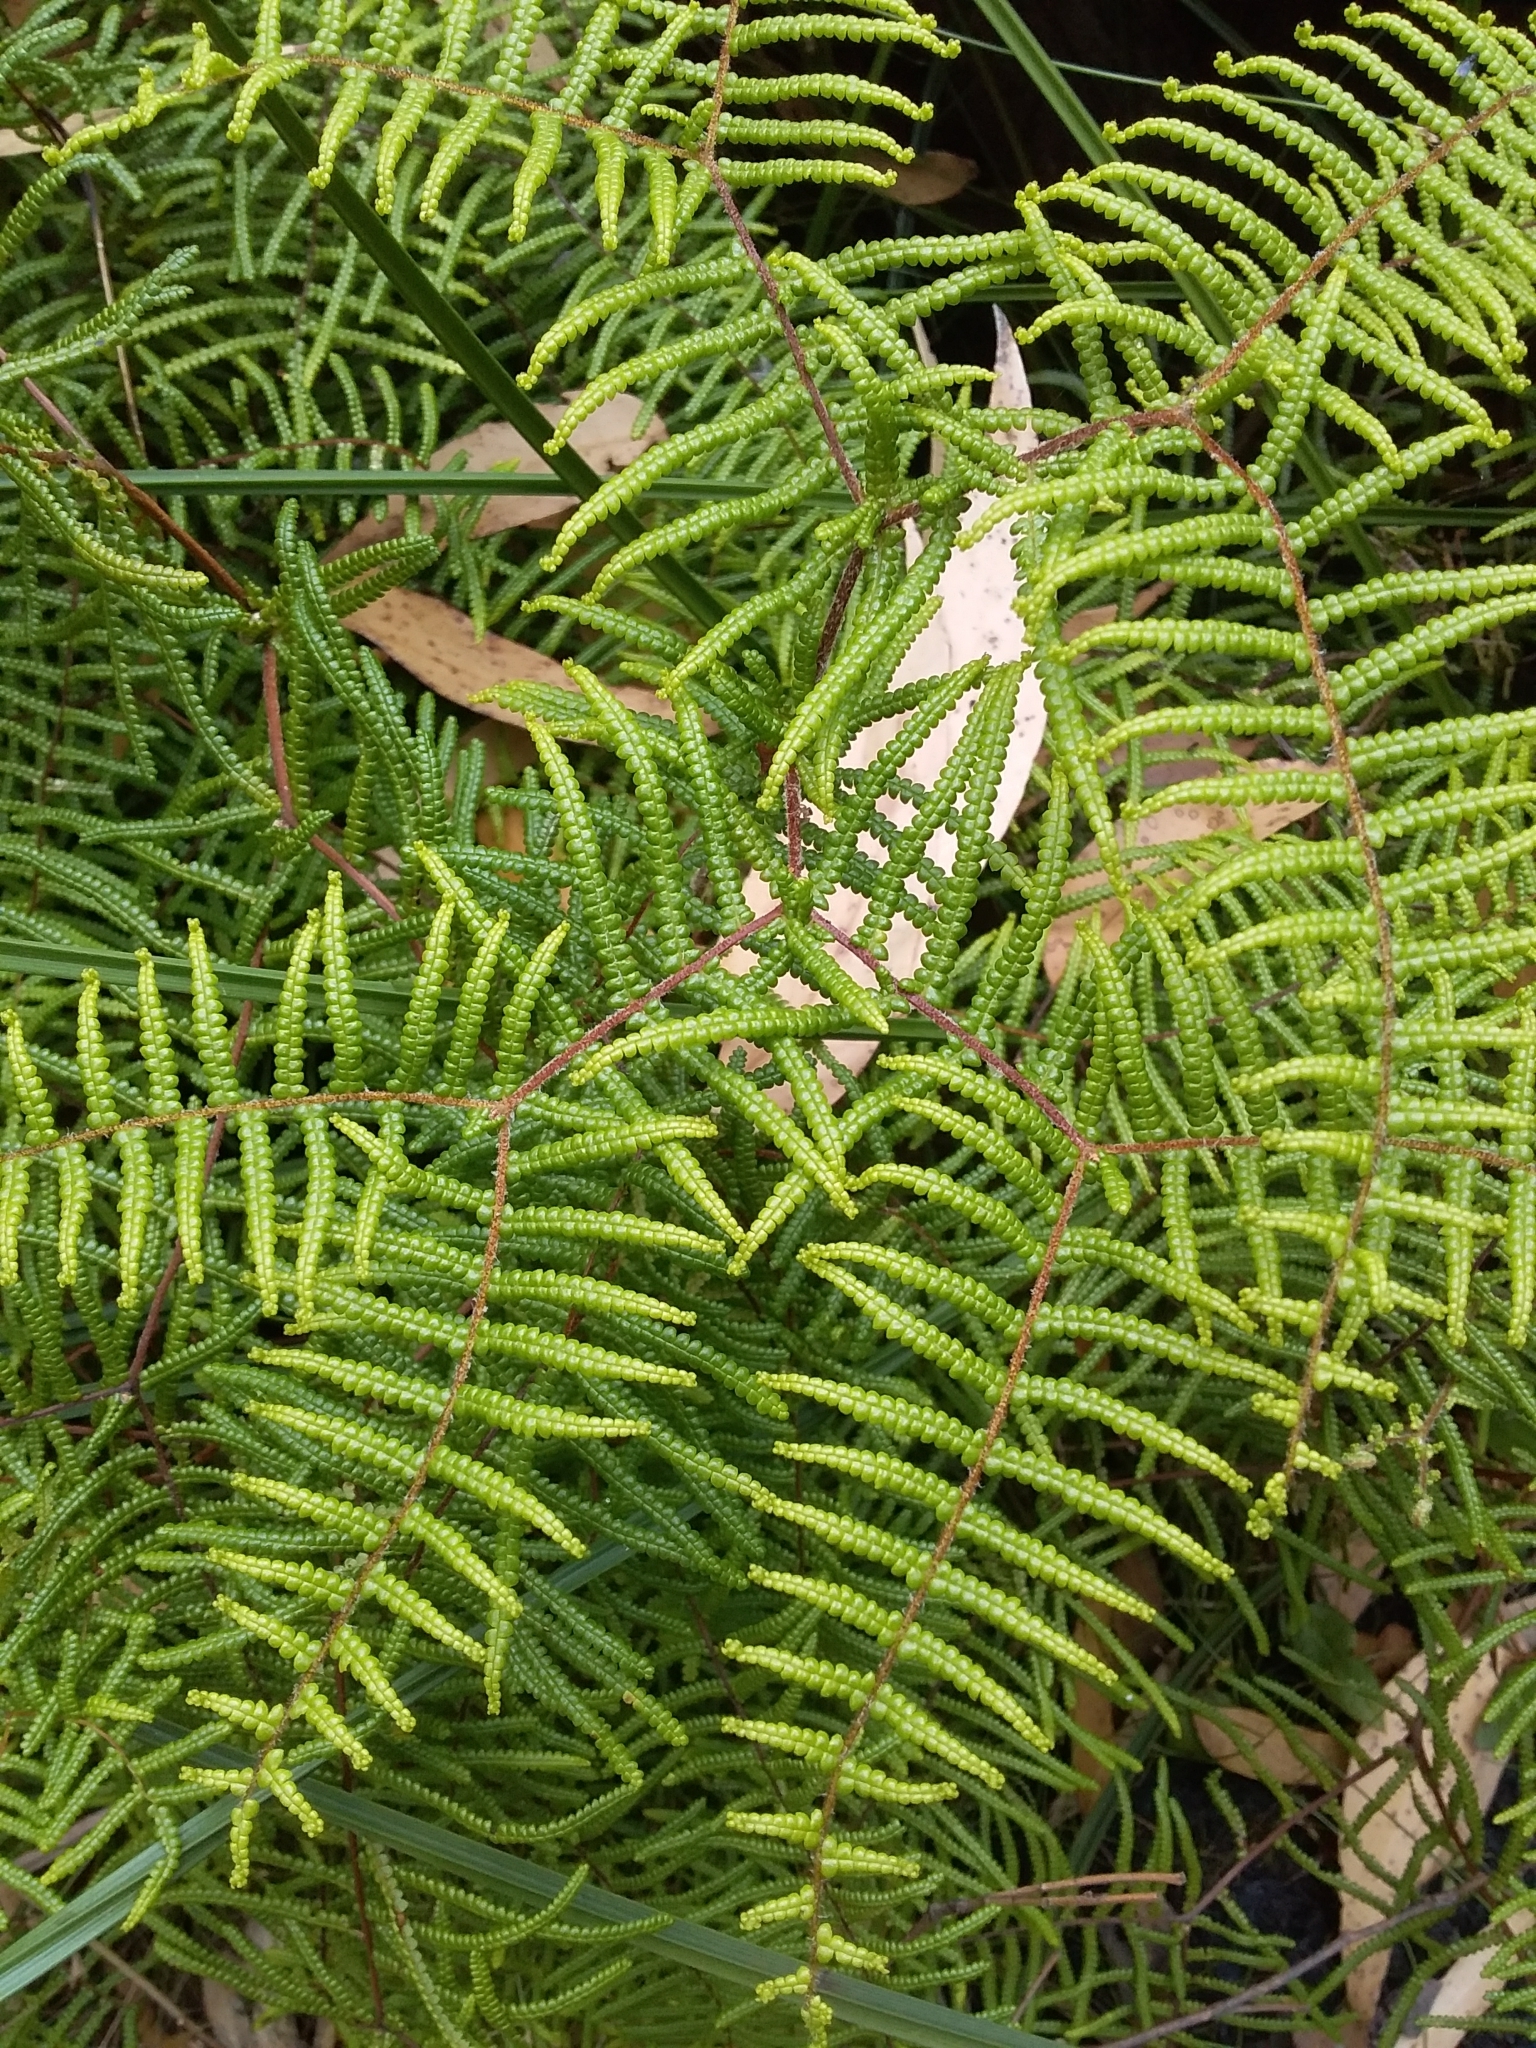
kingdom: Plantae
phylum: Tracheophyta
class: Polypodiopsida
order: Gleicheniales
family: Gleicheniaceae
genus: Gleichenia
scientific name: Gleichenia microphylla
